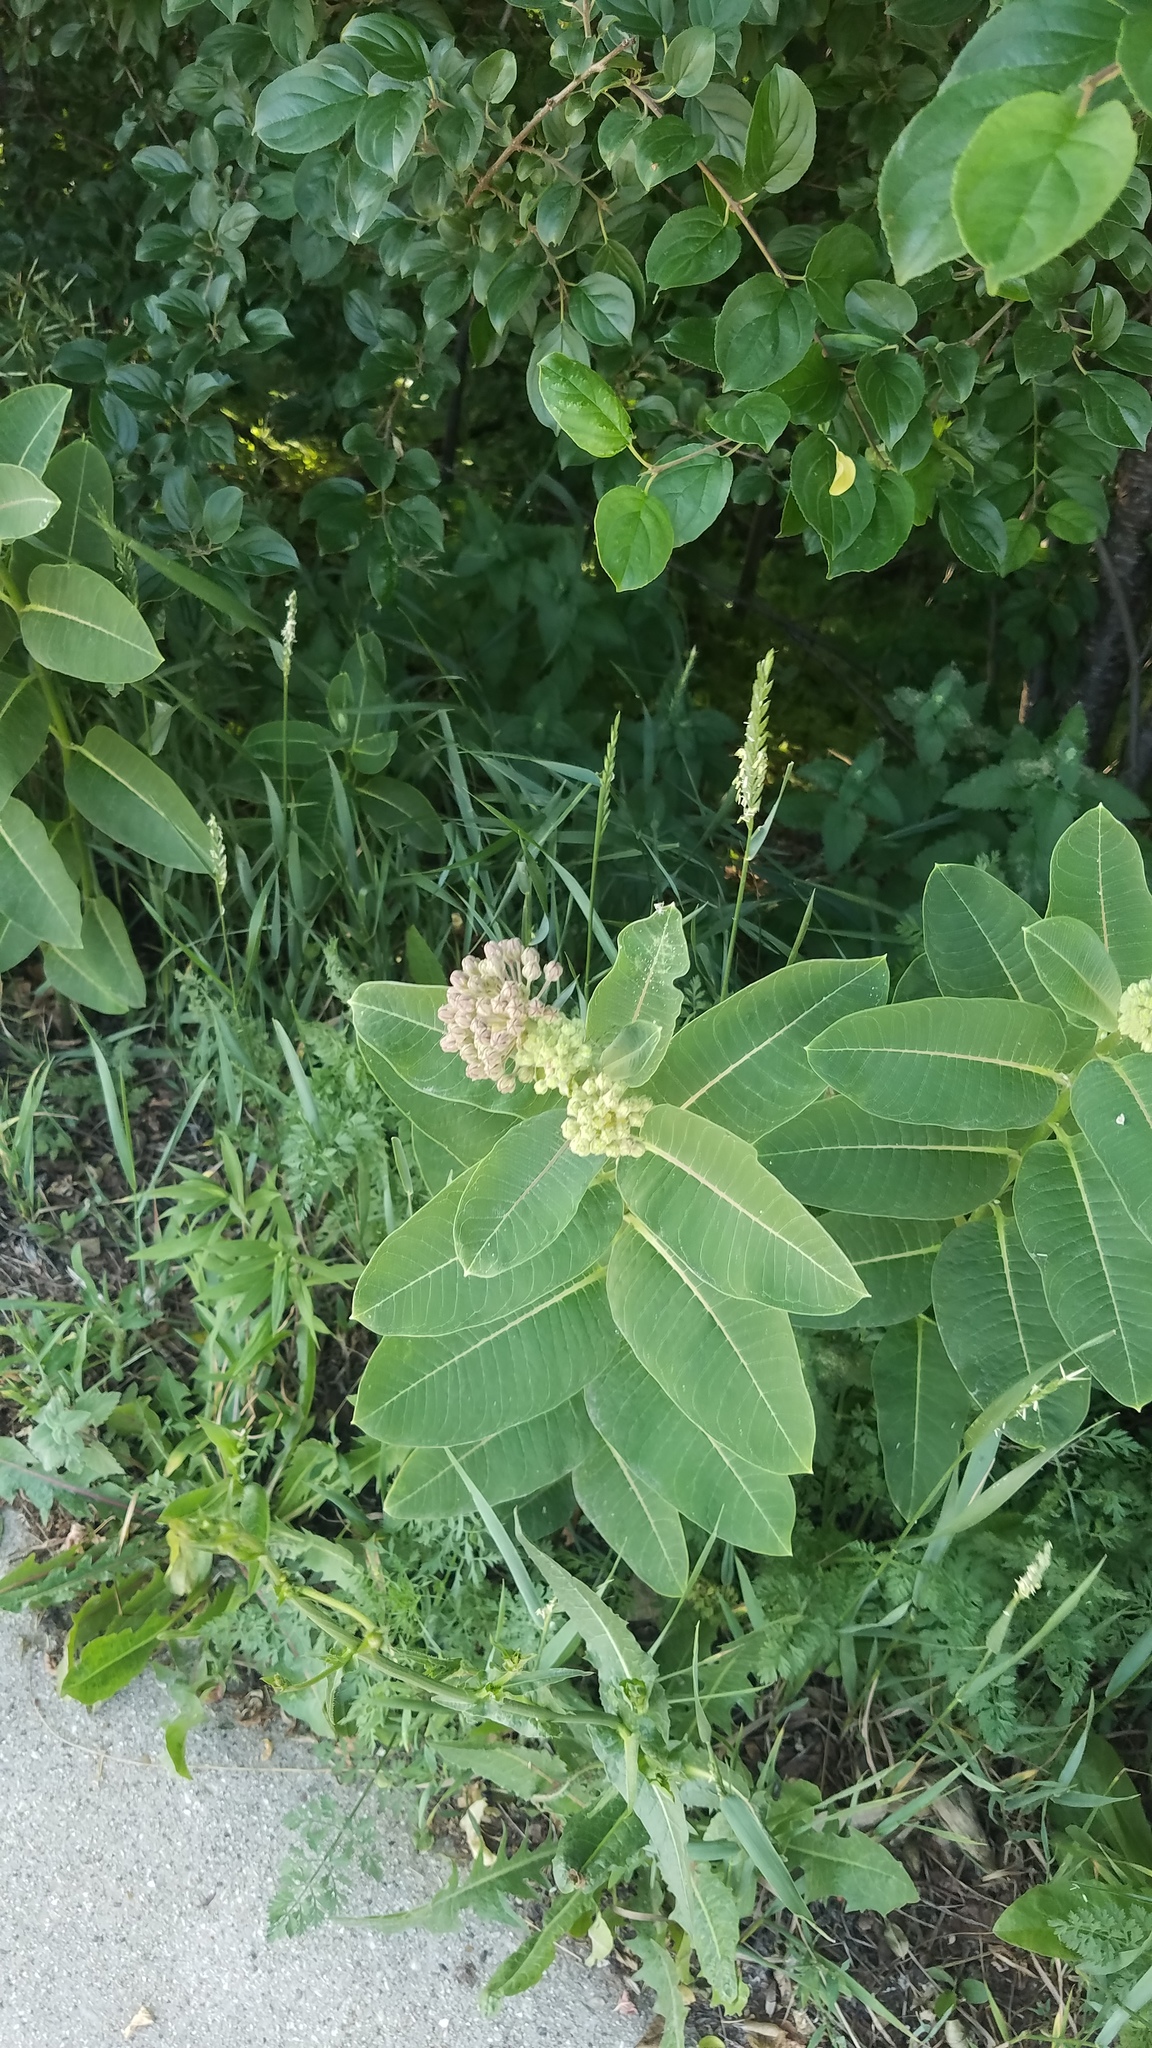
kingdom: Plantae
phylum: Tracheophyta
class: Magnoliopsida
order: Gentianales
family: Apocynaceae
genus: Asclepias
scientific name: Asclepias syriaca
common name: Common milkweed
